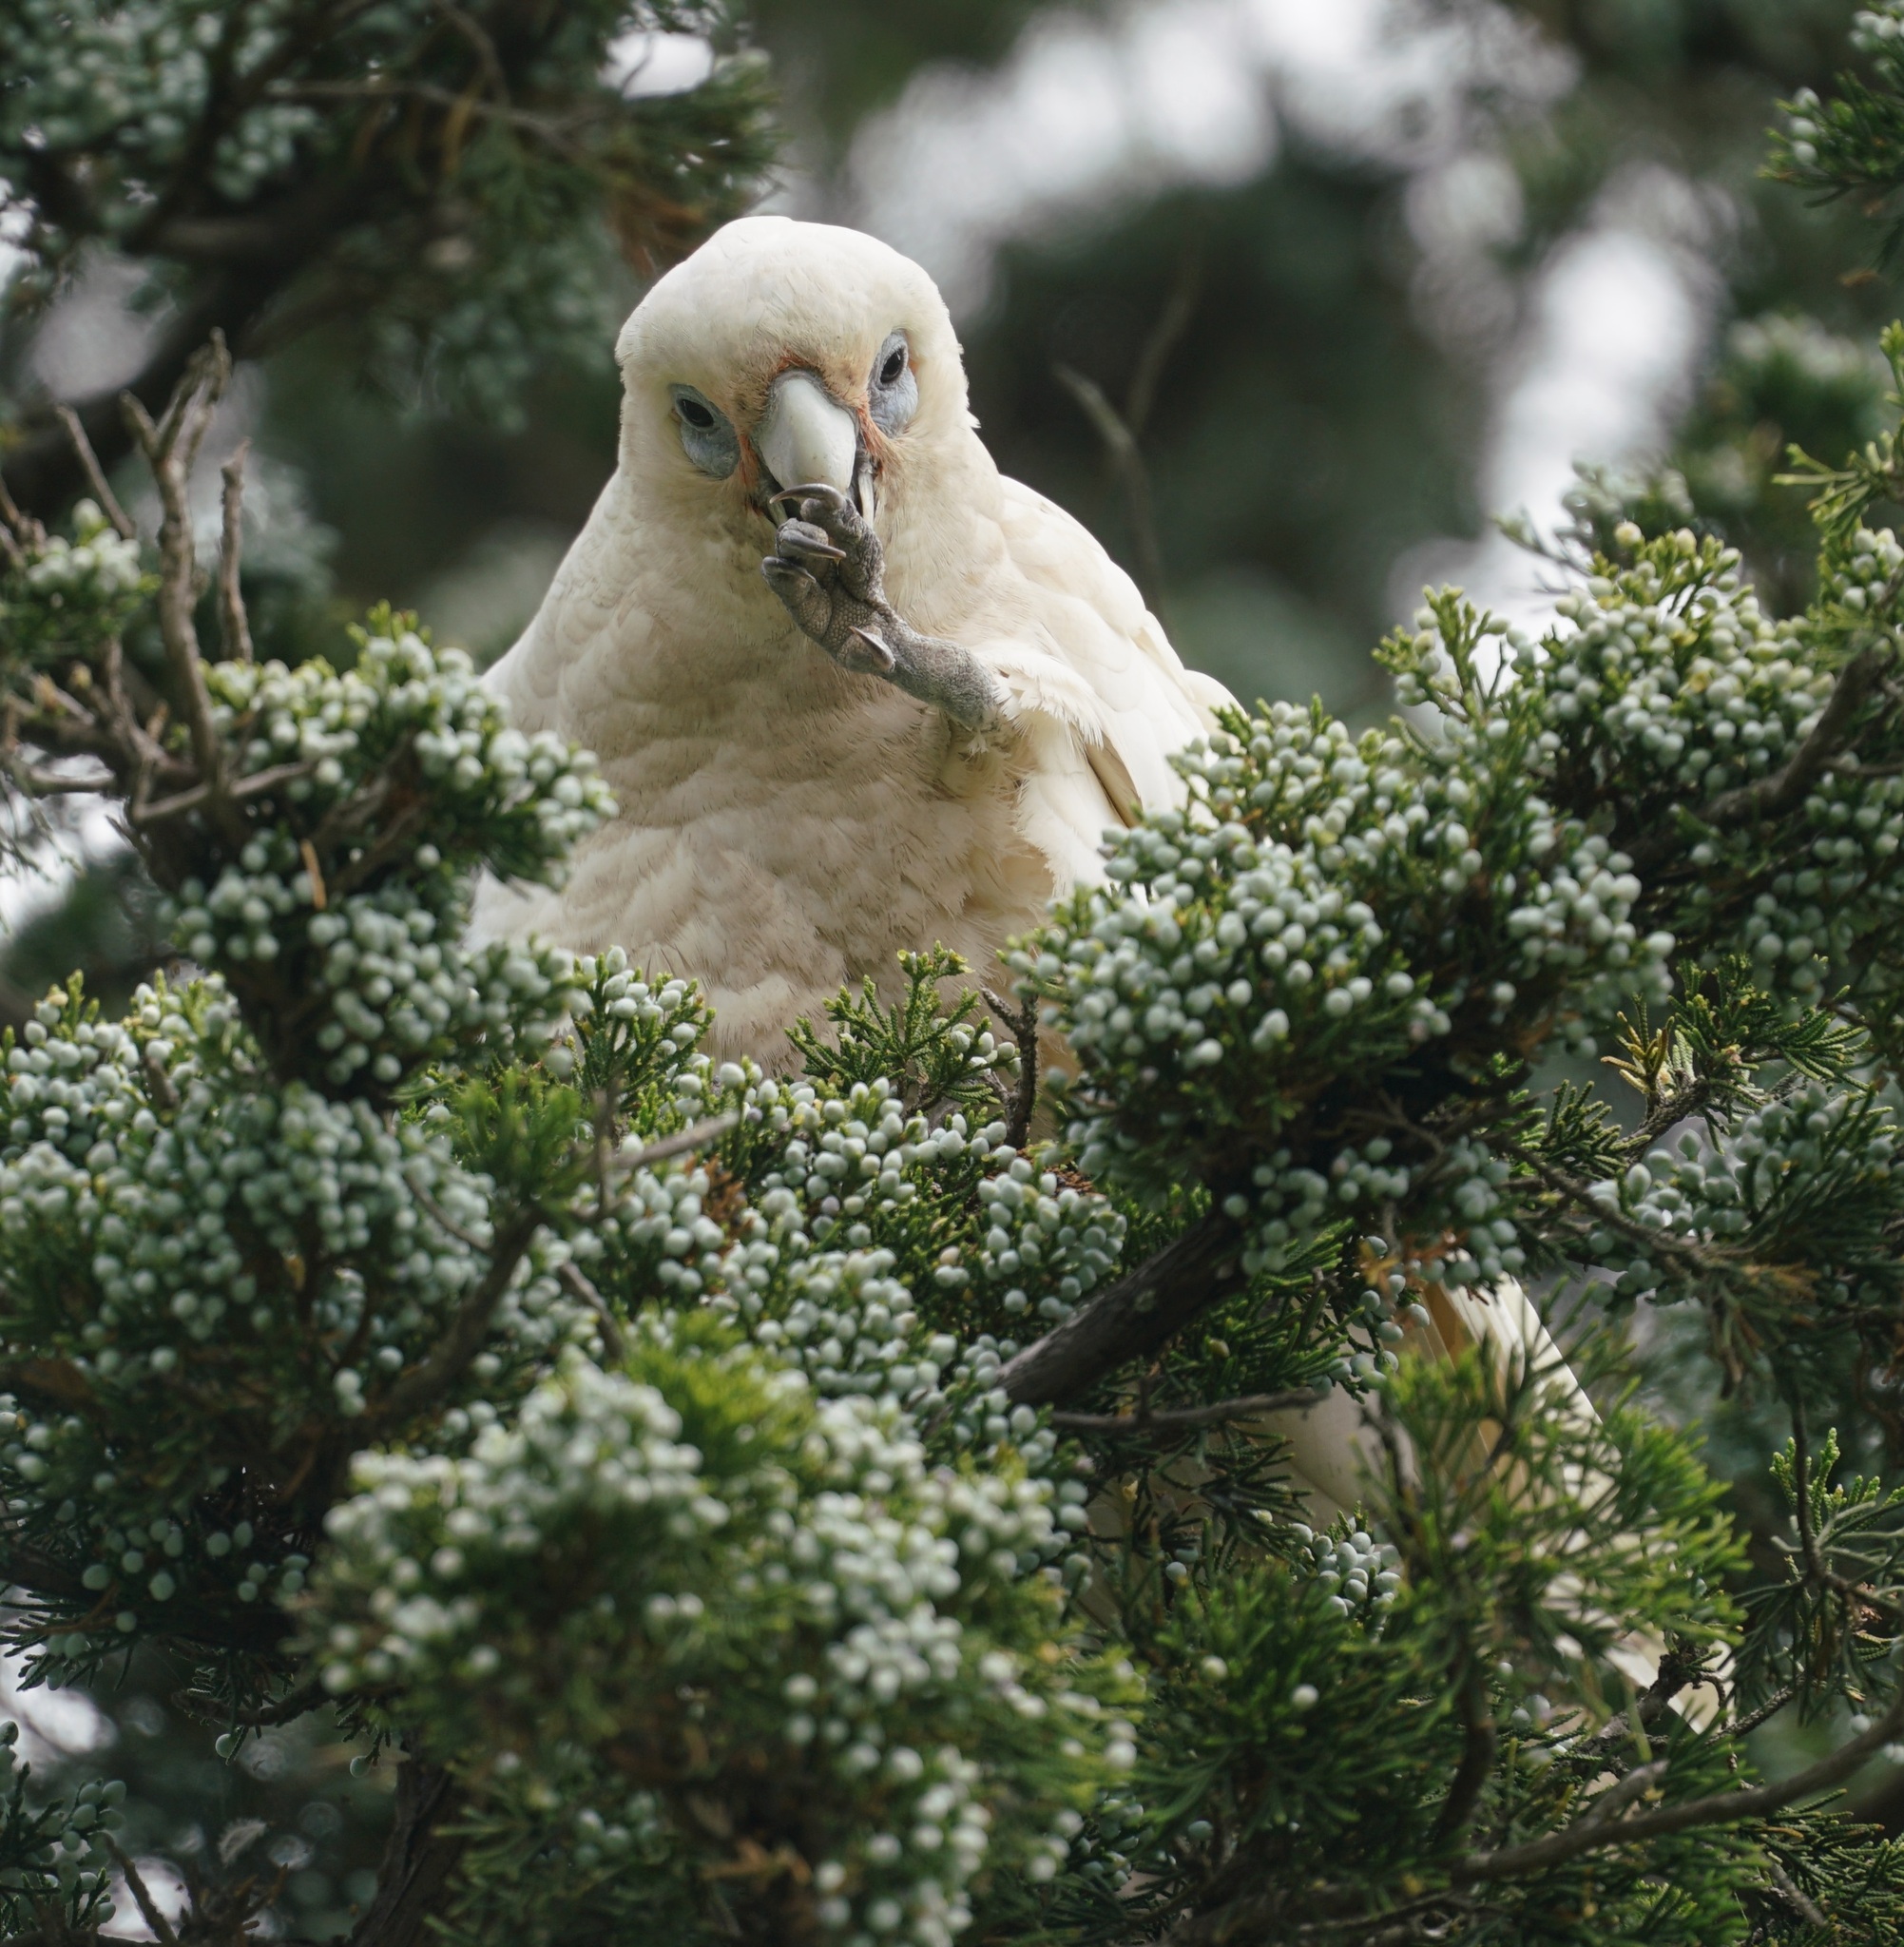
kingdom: Animalia
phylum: Chordata
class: Aves
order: Psittaciformes
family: Psittacidae
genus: Cacatua
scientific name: Cacatua sanguinea
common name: Little corella
